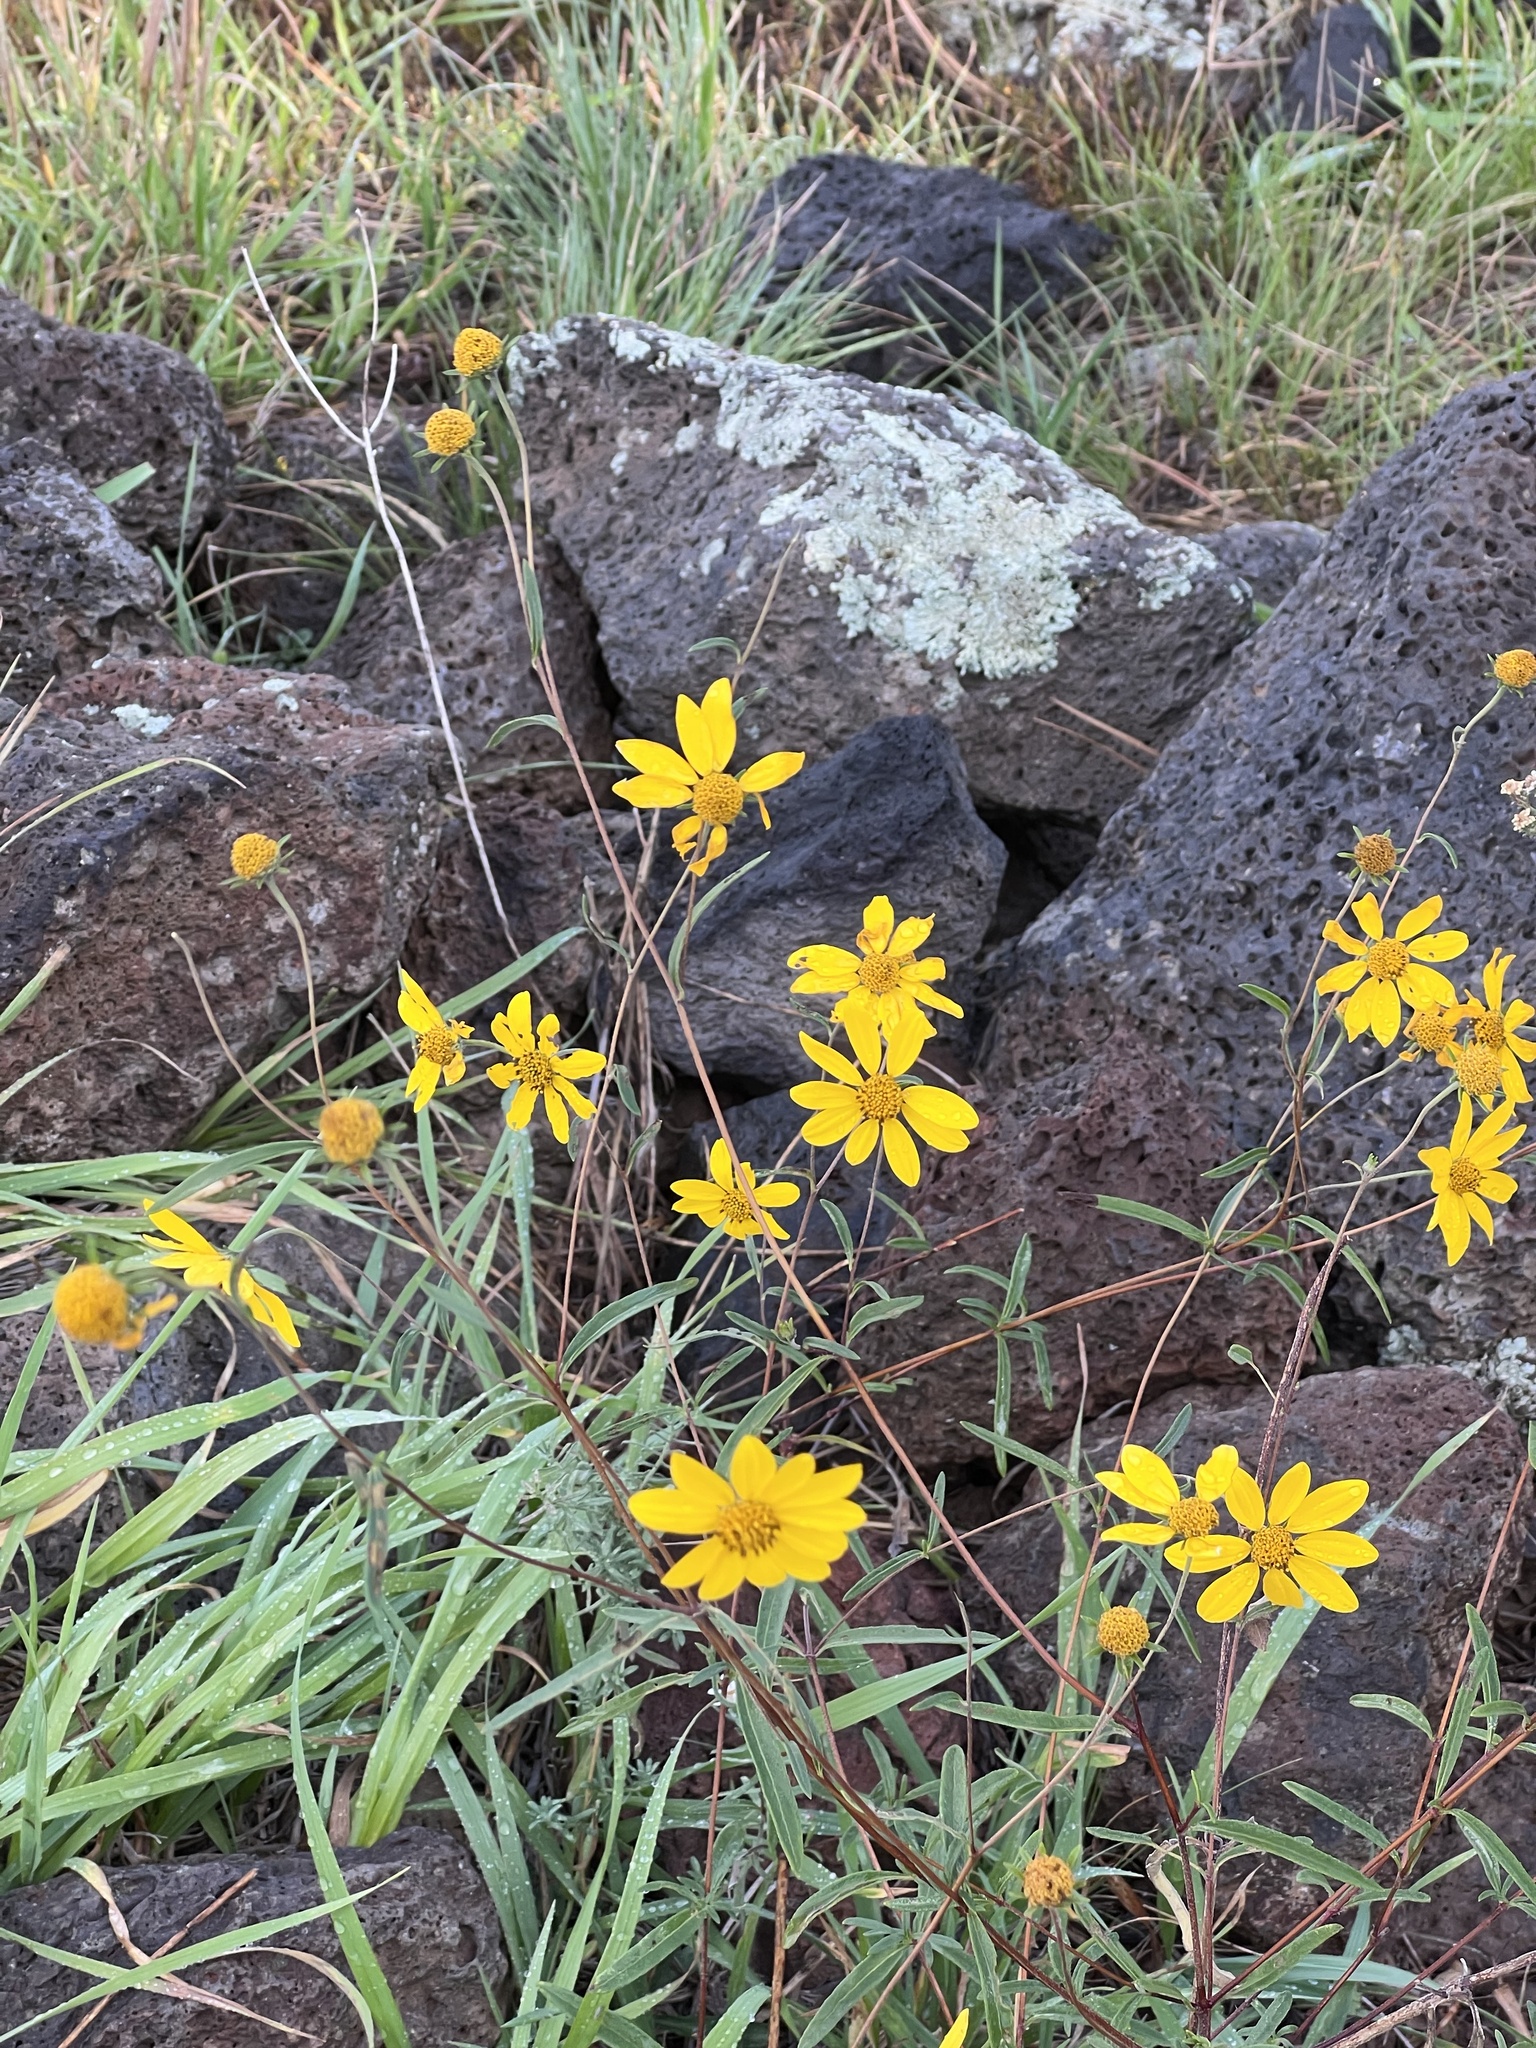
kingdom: Plantae
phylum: Tracheophyta
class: Magnoliopsida
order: Asterales
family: Asteraceae
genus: Heliomeris
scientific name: Heliomeris multiflora
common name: Showy goldeneye
